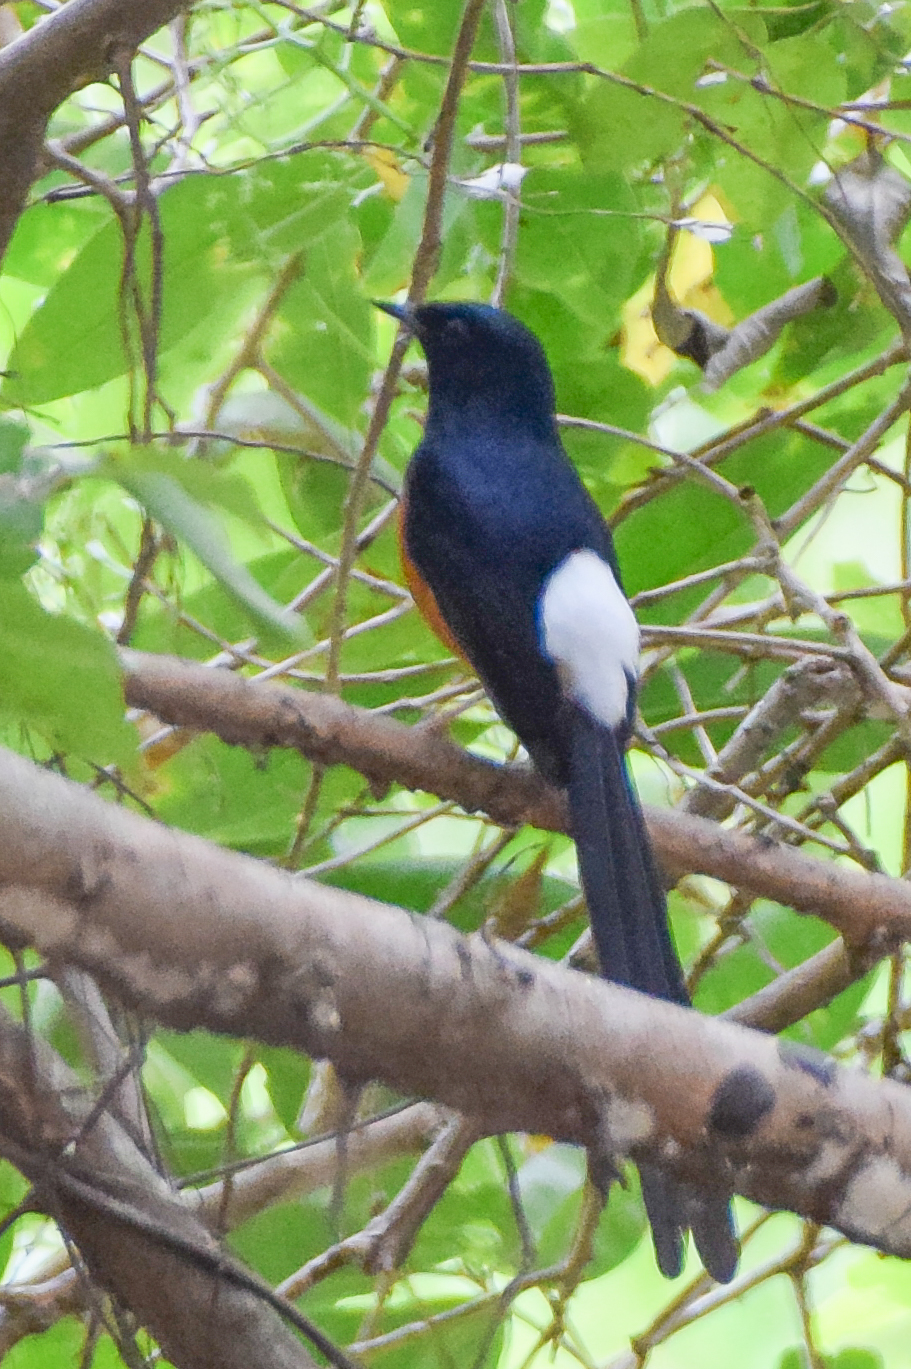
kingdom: Animalia
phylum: Chordata
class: Aves
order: Passeriformes
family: Muscicapidae
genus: Copsychus
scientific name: Copsychus malabaricus
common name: White-rumped shama
